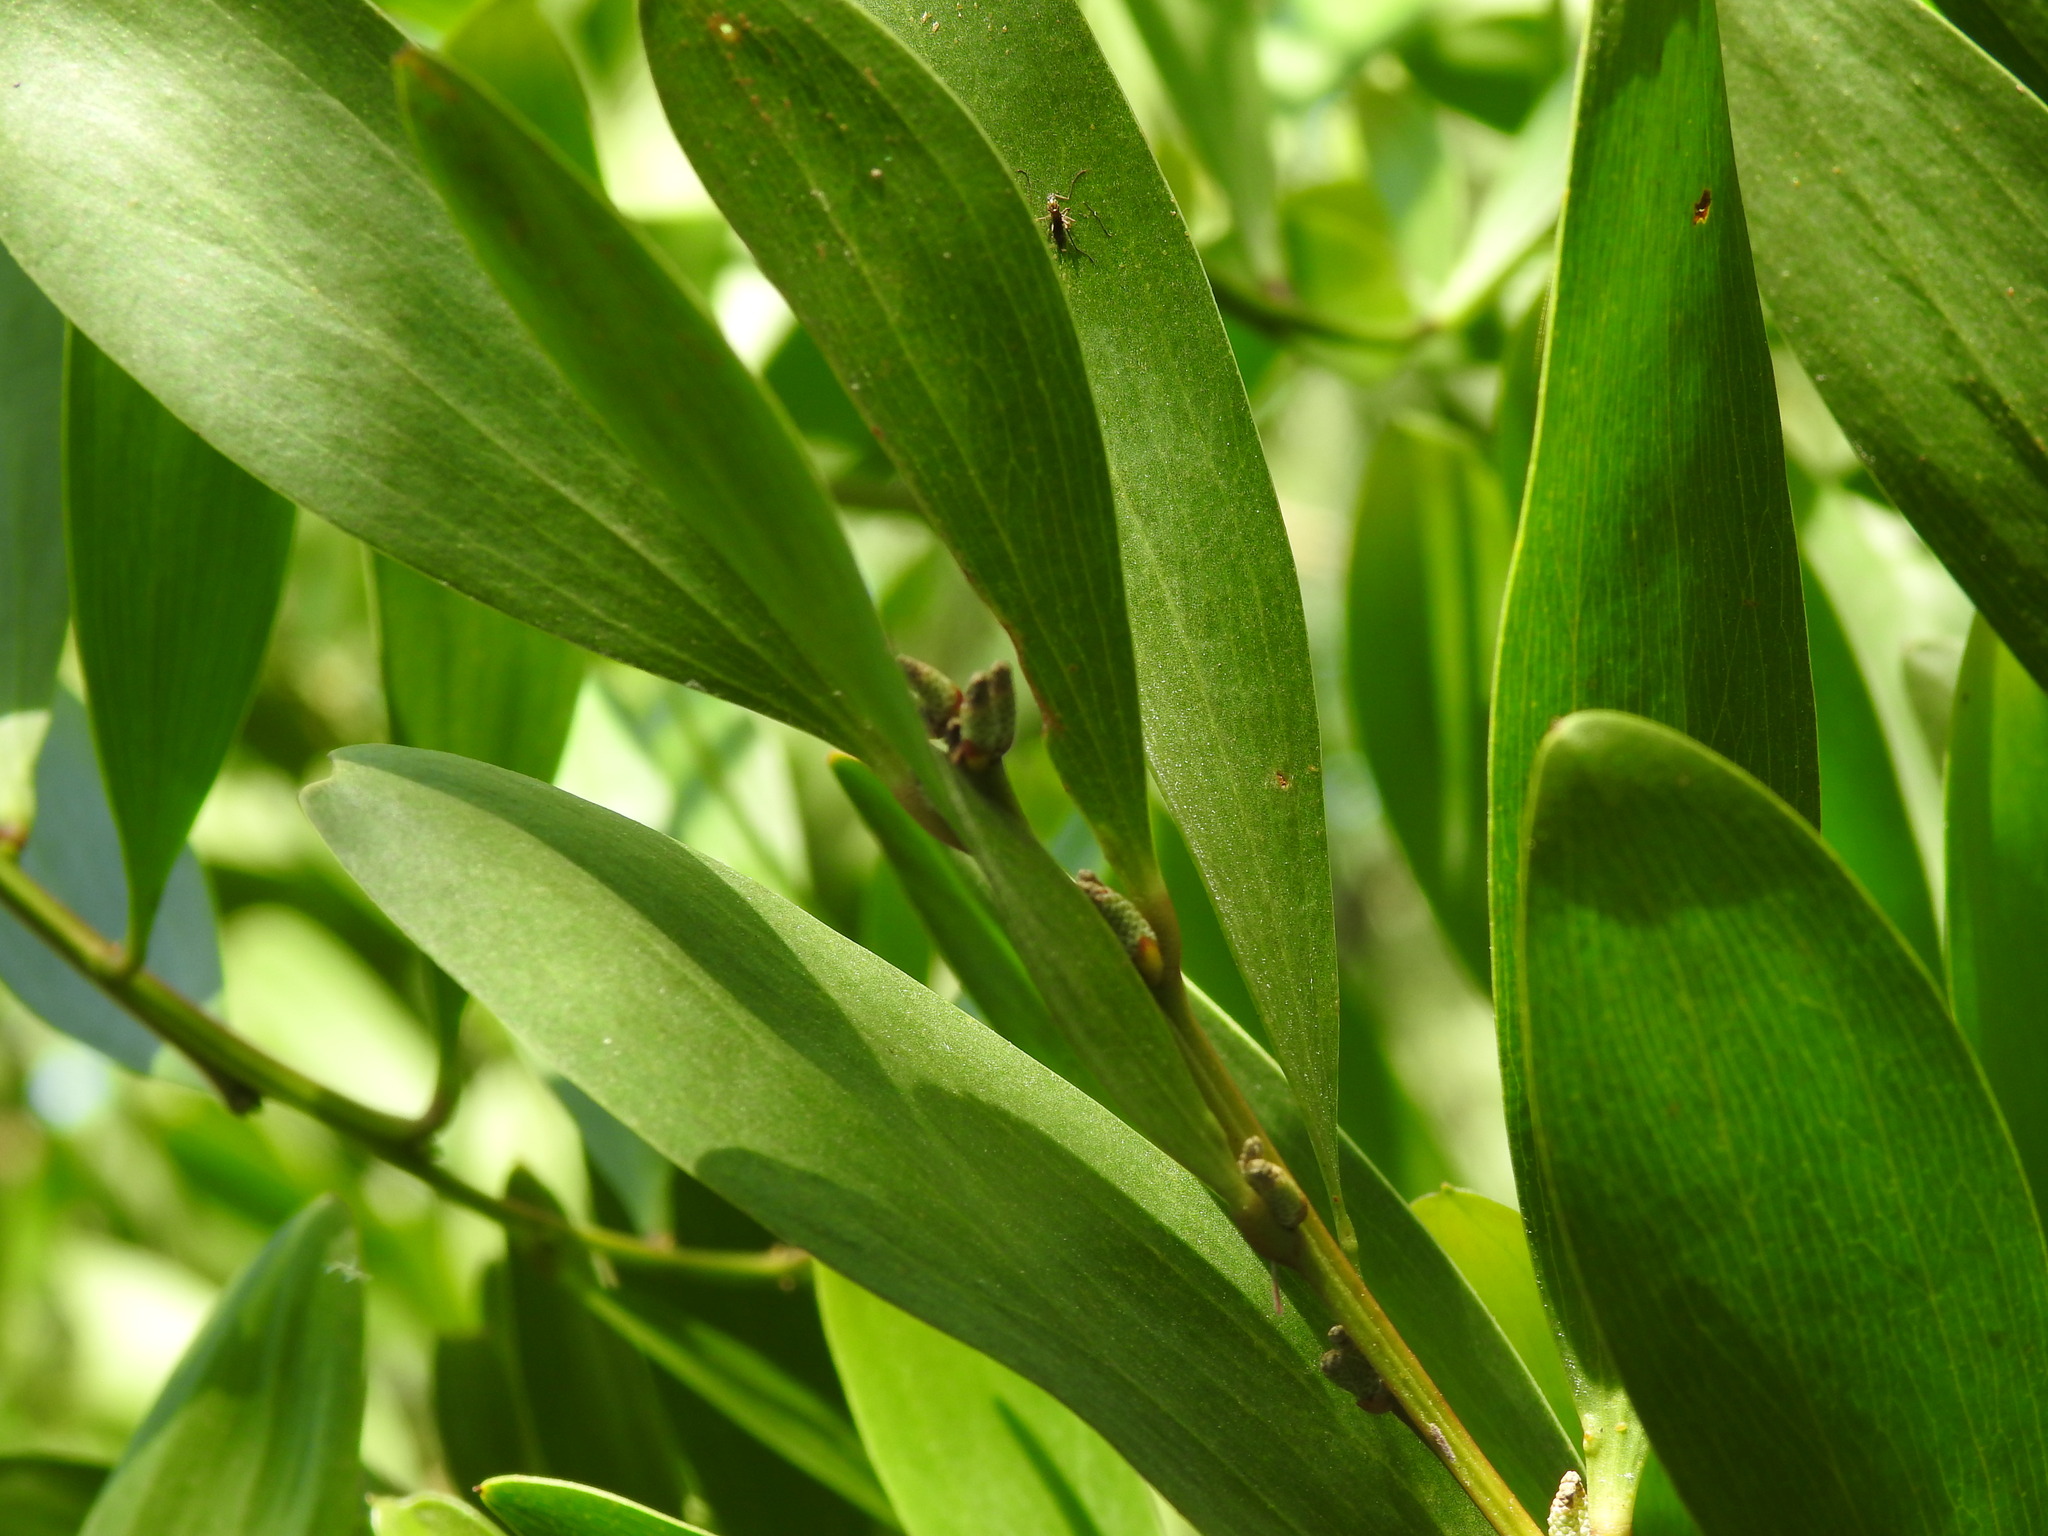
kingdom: Plantae
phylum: Tracheophyta
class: Magnoliopsida
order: Fabales
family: Fabaceae
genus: Acacia
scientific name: Acacia longifolia
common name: Sydney golden wattle
